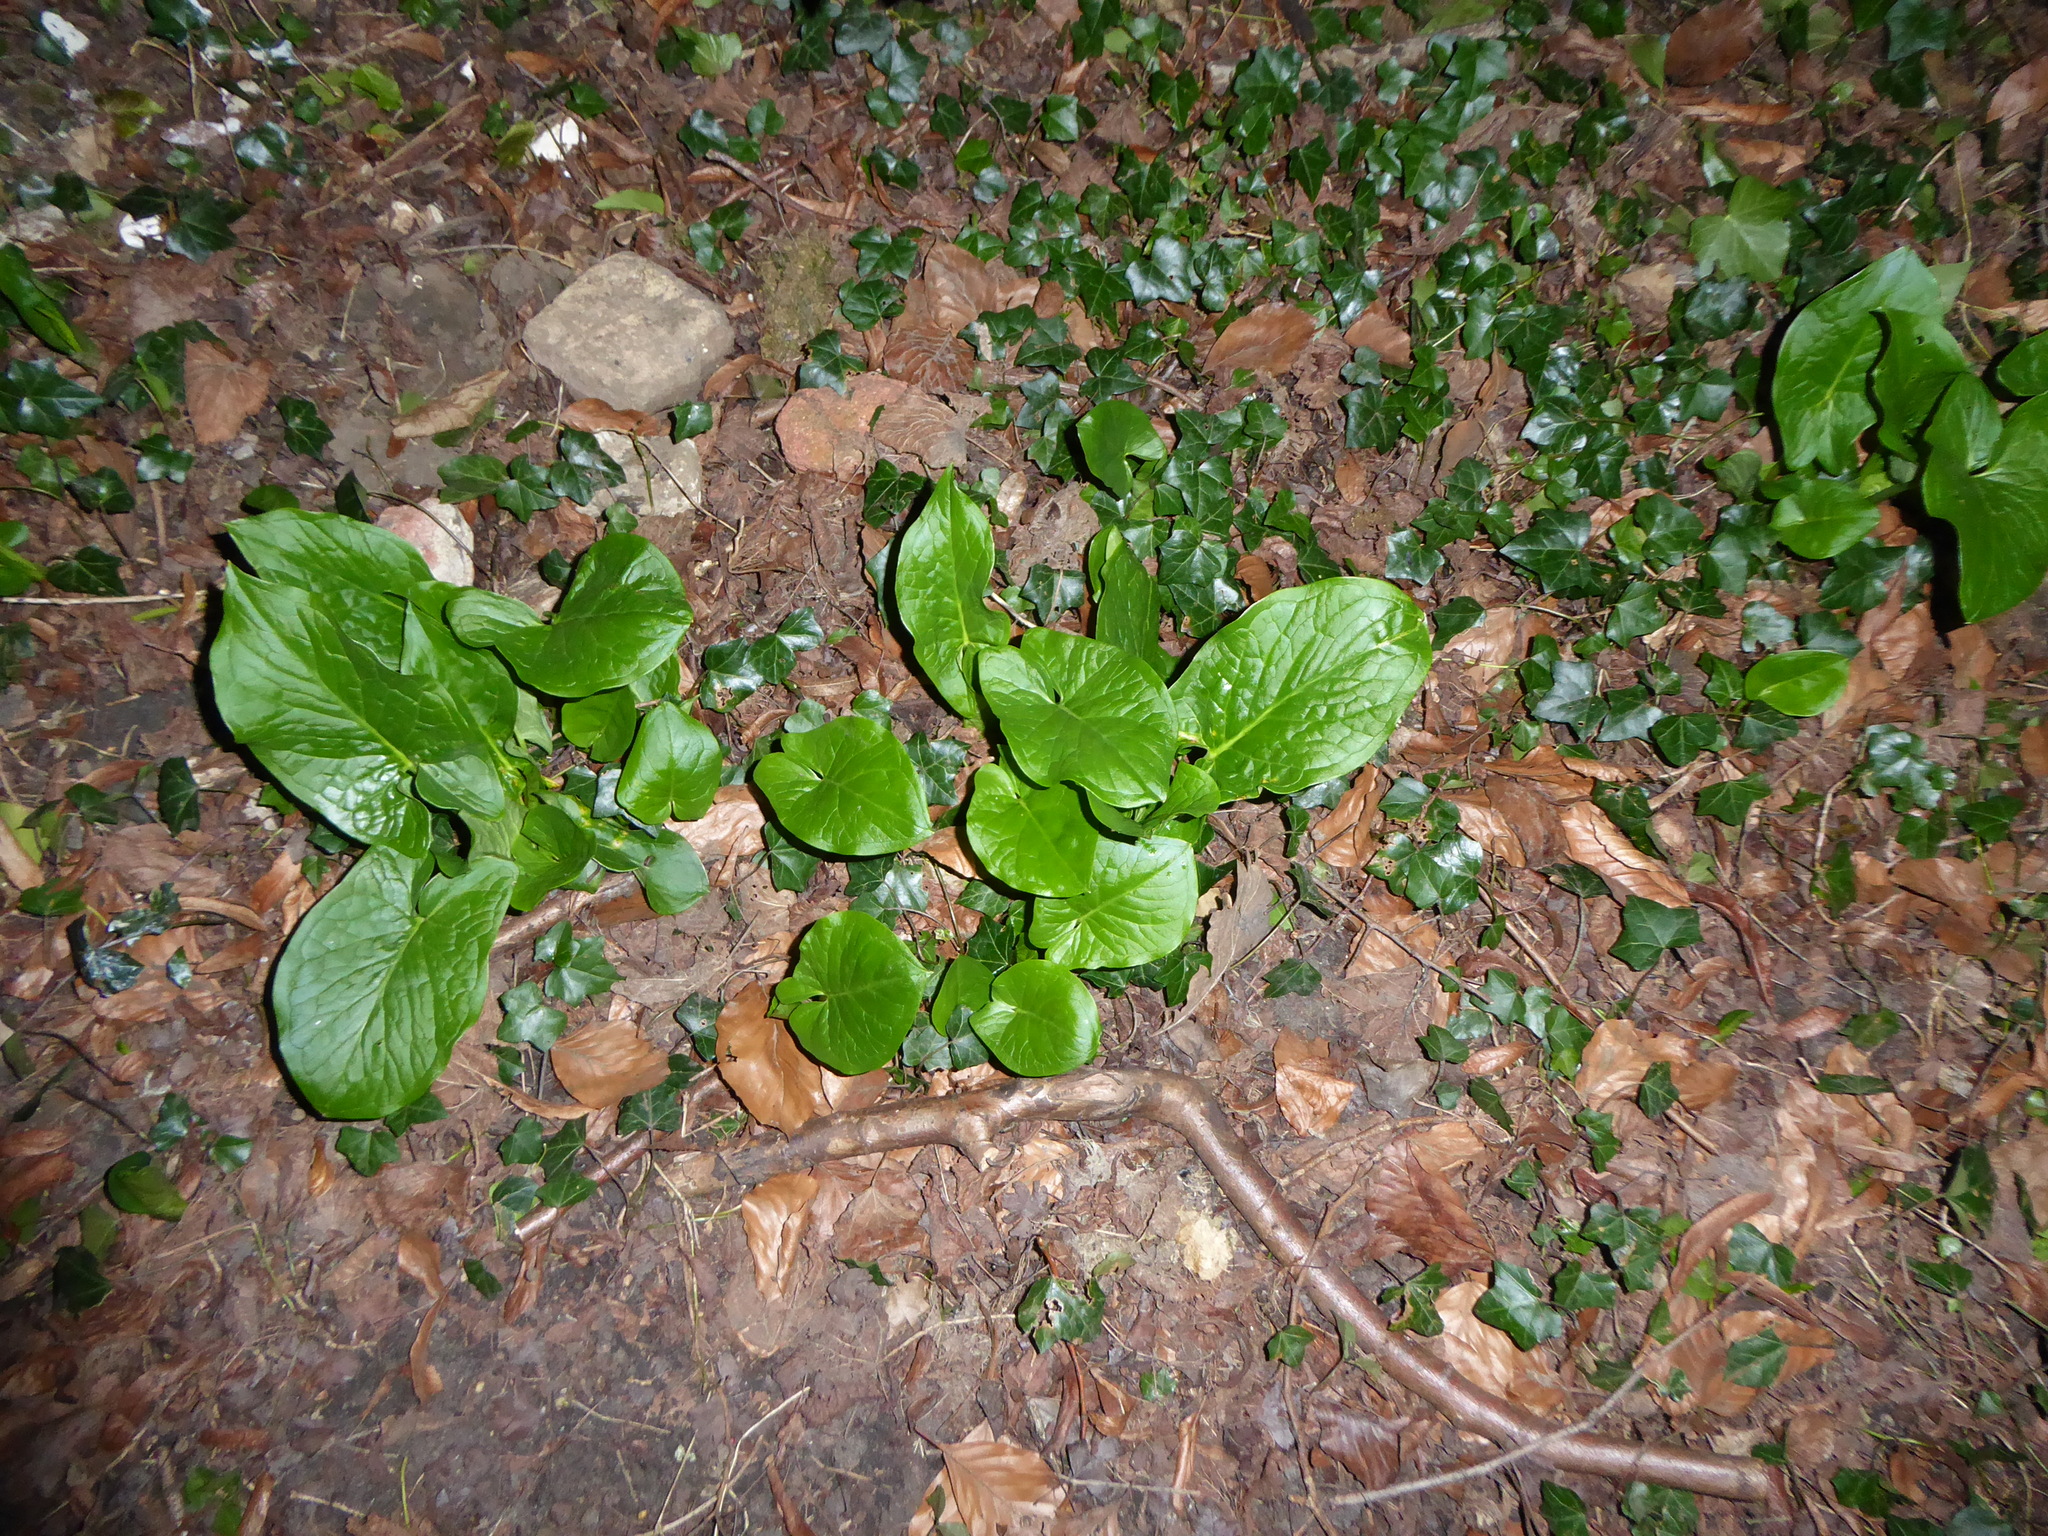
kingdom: Plantae
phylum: Tracheophyta
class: Liliopsida
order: Alismatales
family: Araceae
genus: Arum
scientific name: Arum maculatum
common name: Lords-and-ladies
